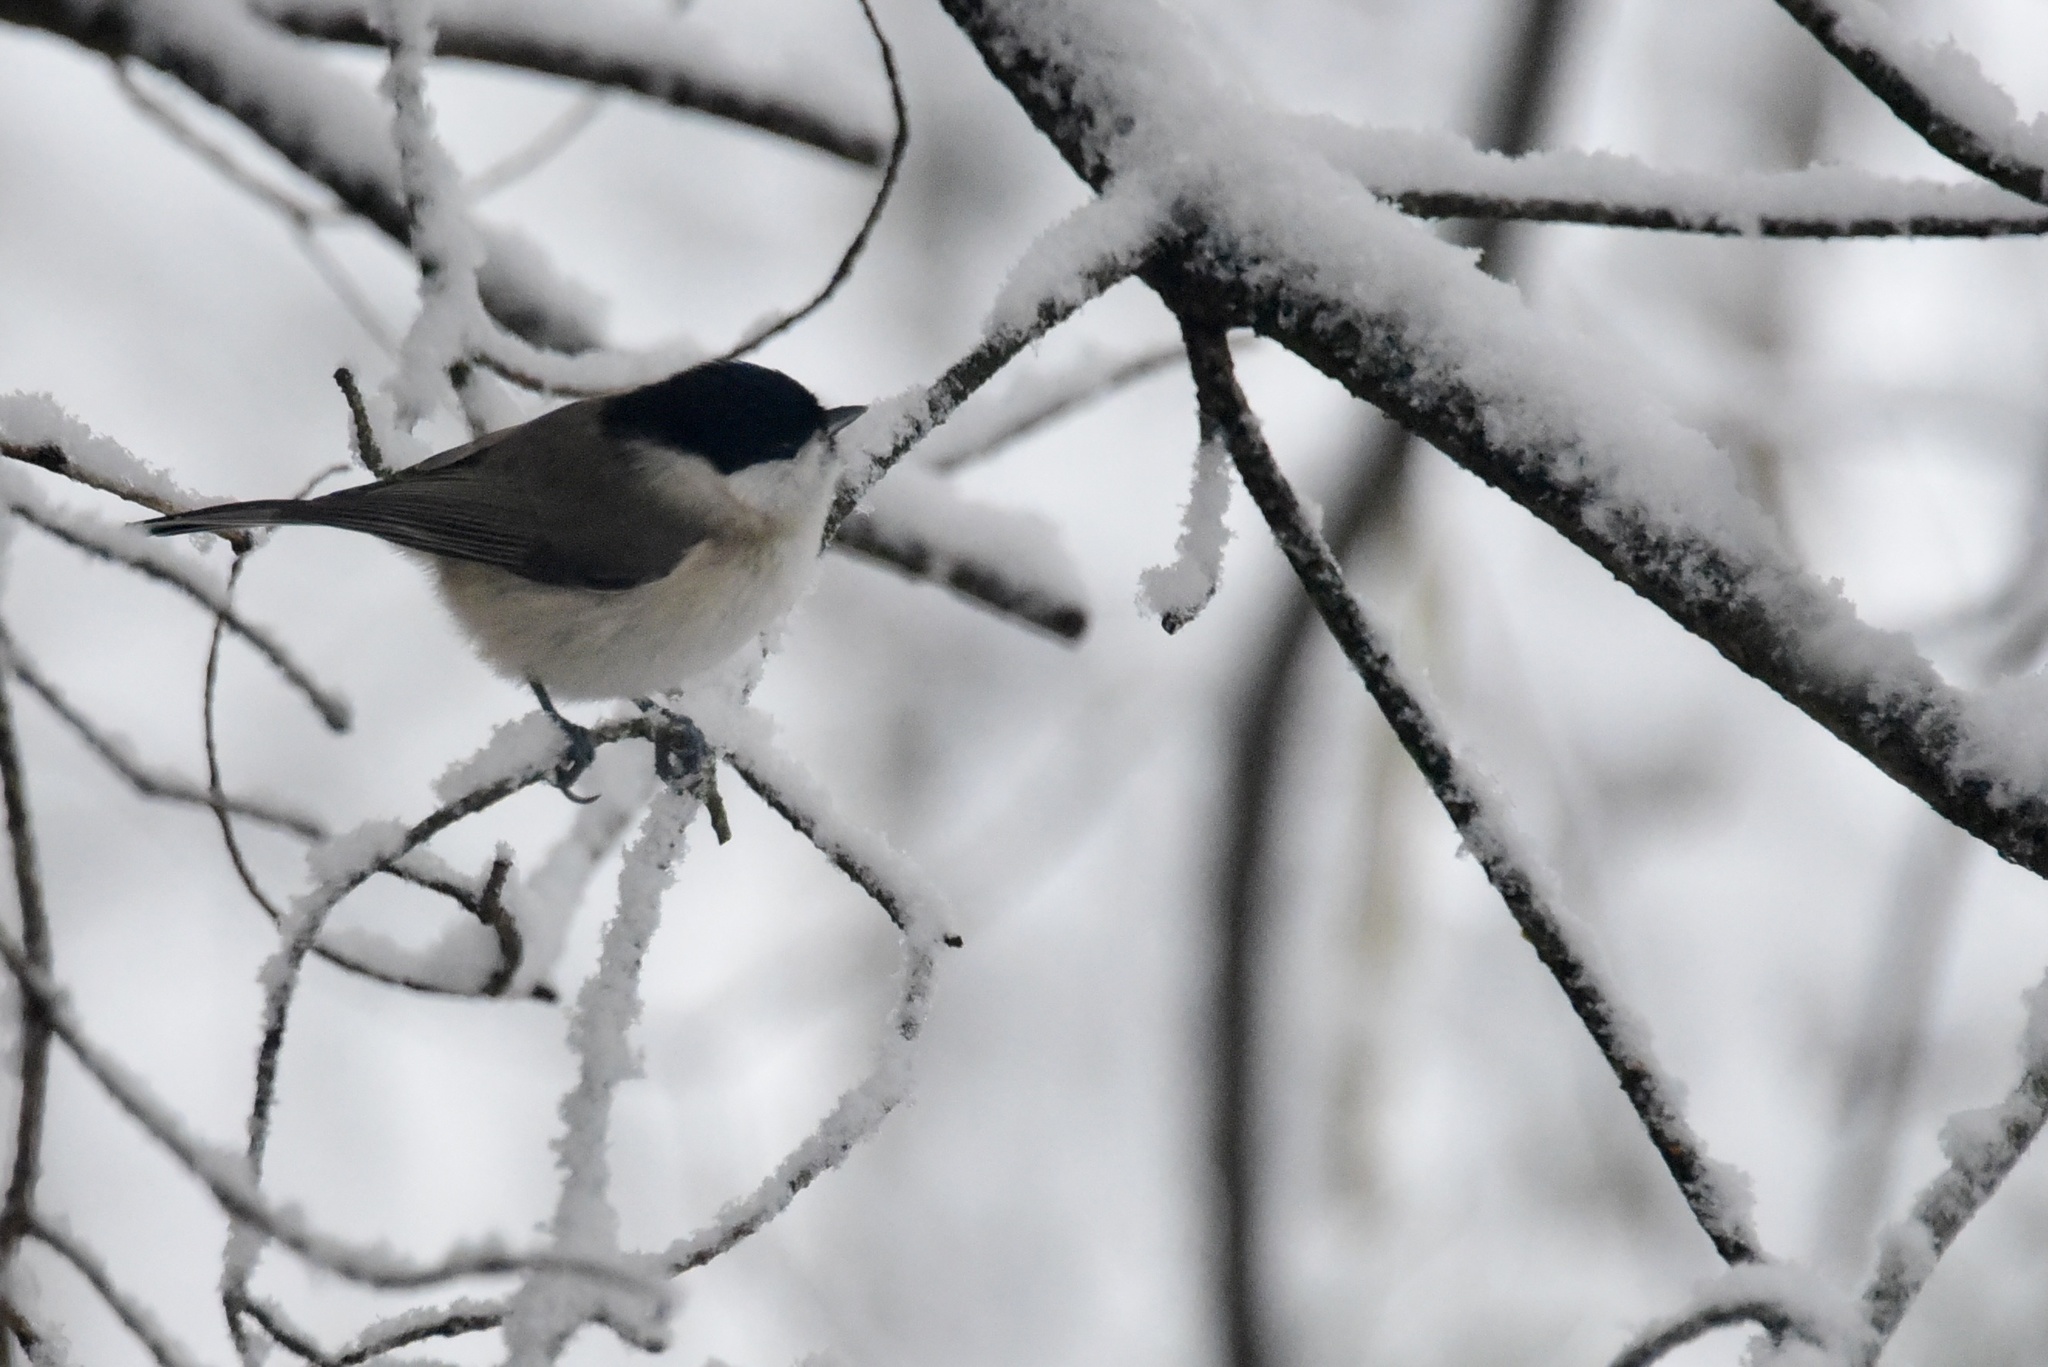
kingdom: Animalia
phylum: Chordata
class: Aves
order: Passeriformes
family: Paridae
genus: Poecile
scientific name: Poecile palustris
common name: Marsh tit
